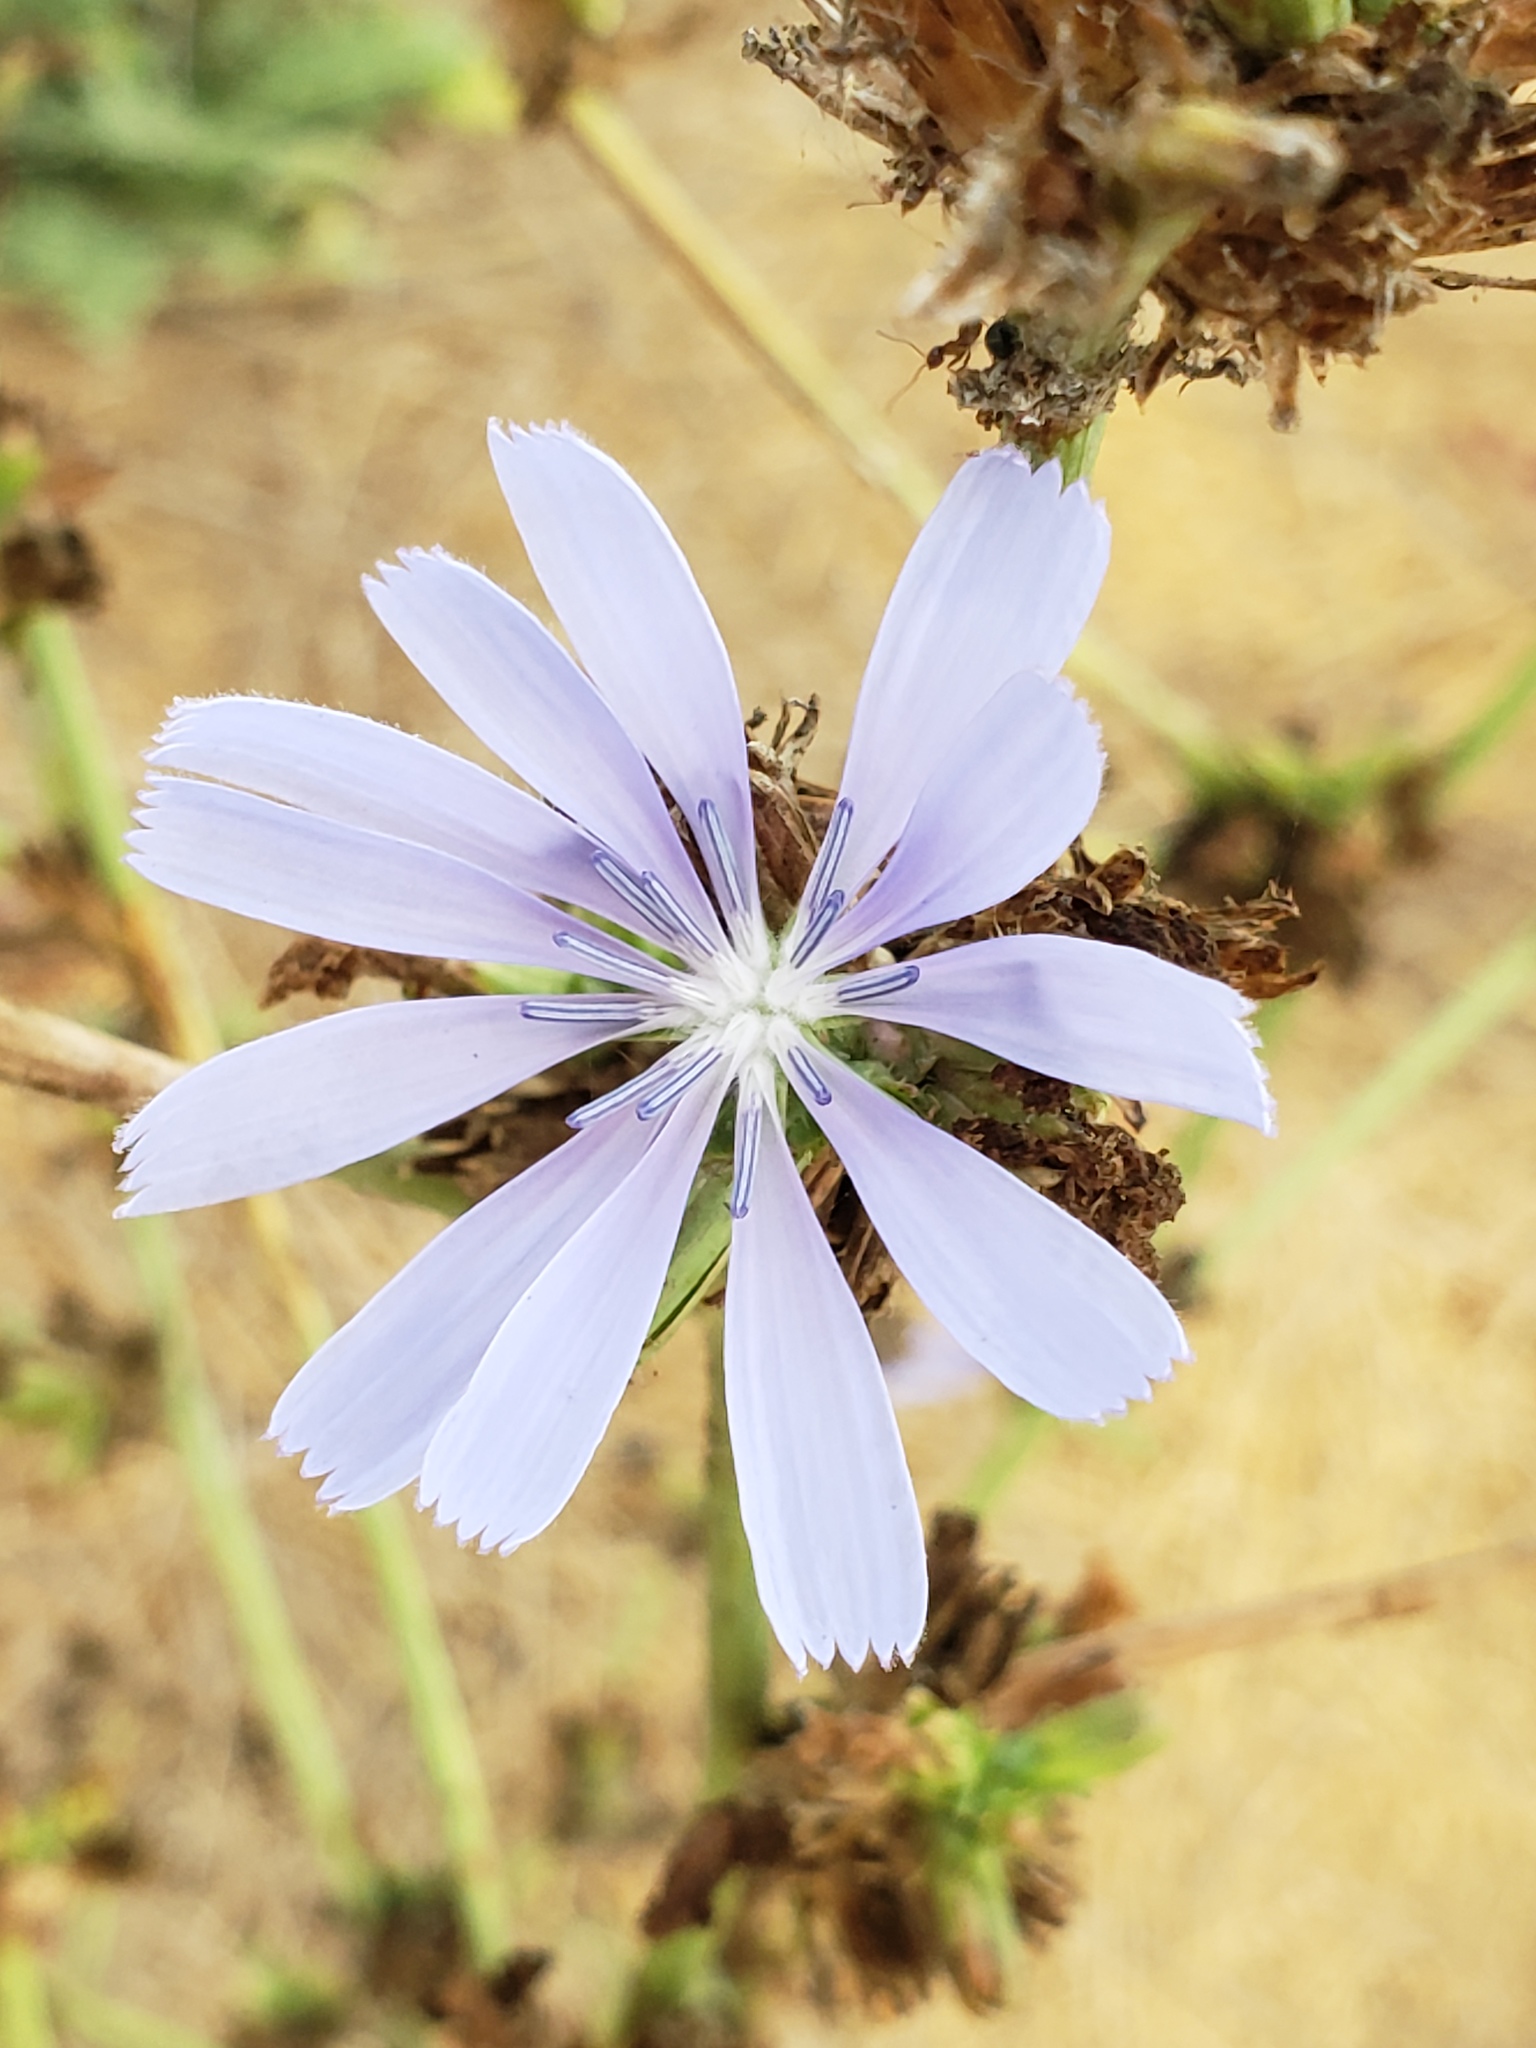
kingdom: Plantae
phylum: Tracheophyta
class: Magnoliopsida
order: Asterales
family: Asteraceae
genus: Cichorium
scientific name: Cichorium intybus
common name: Chicory
